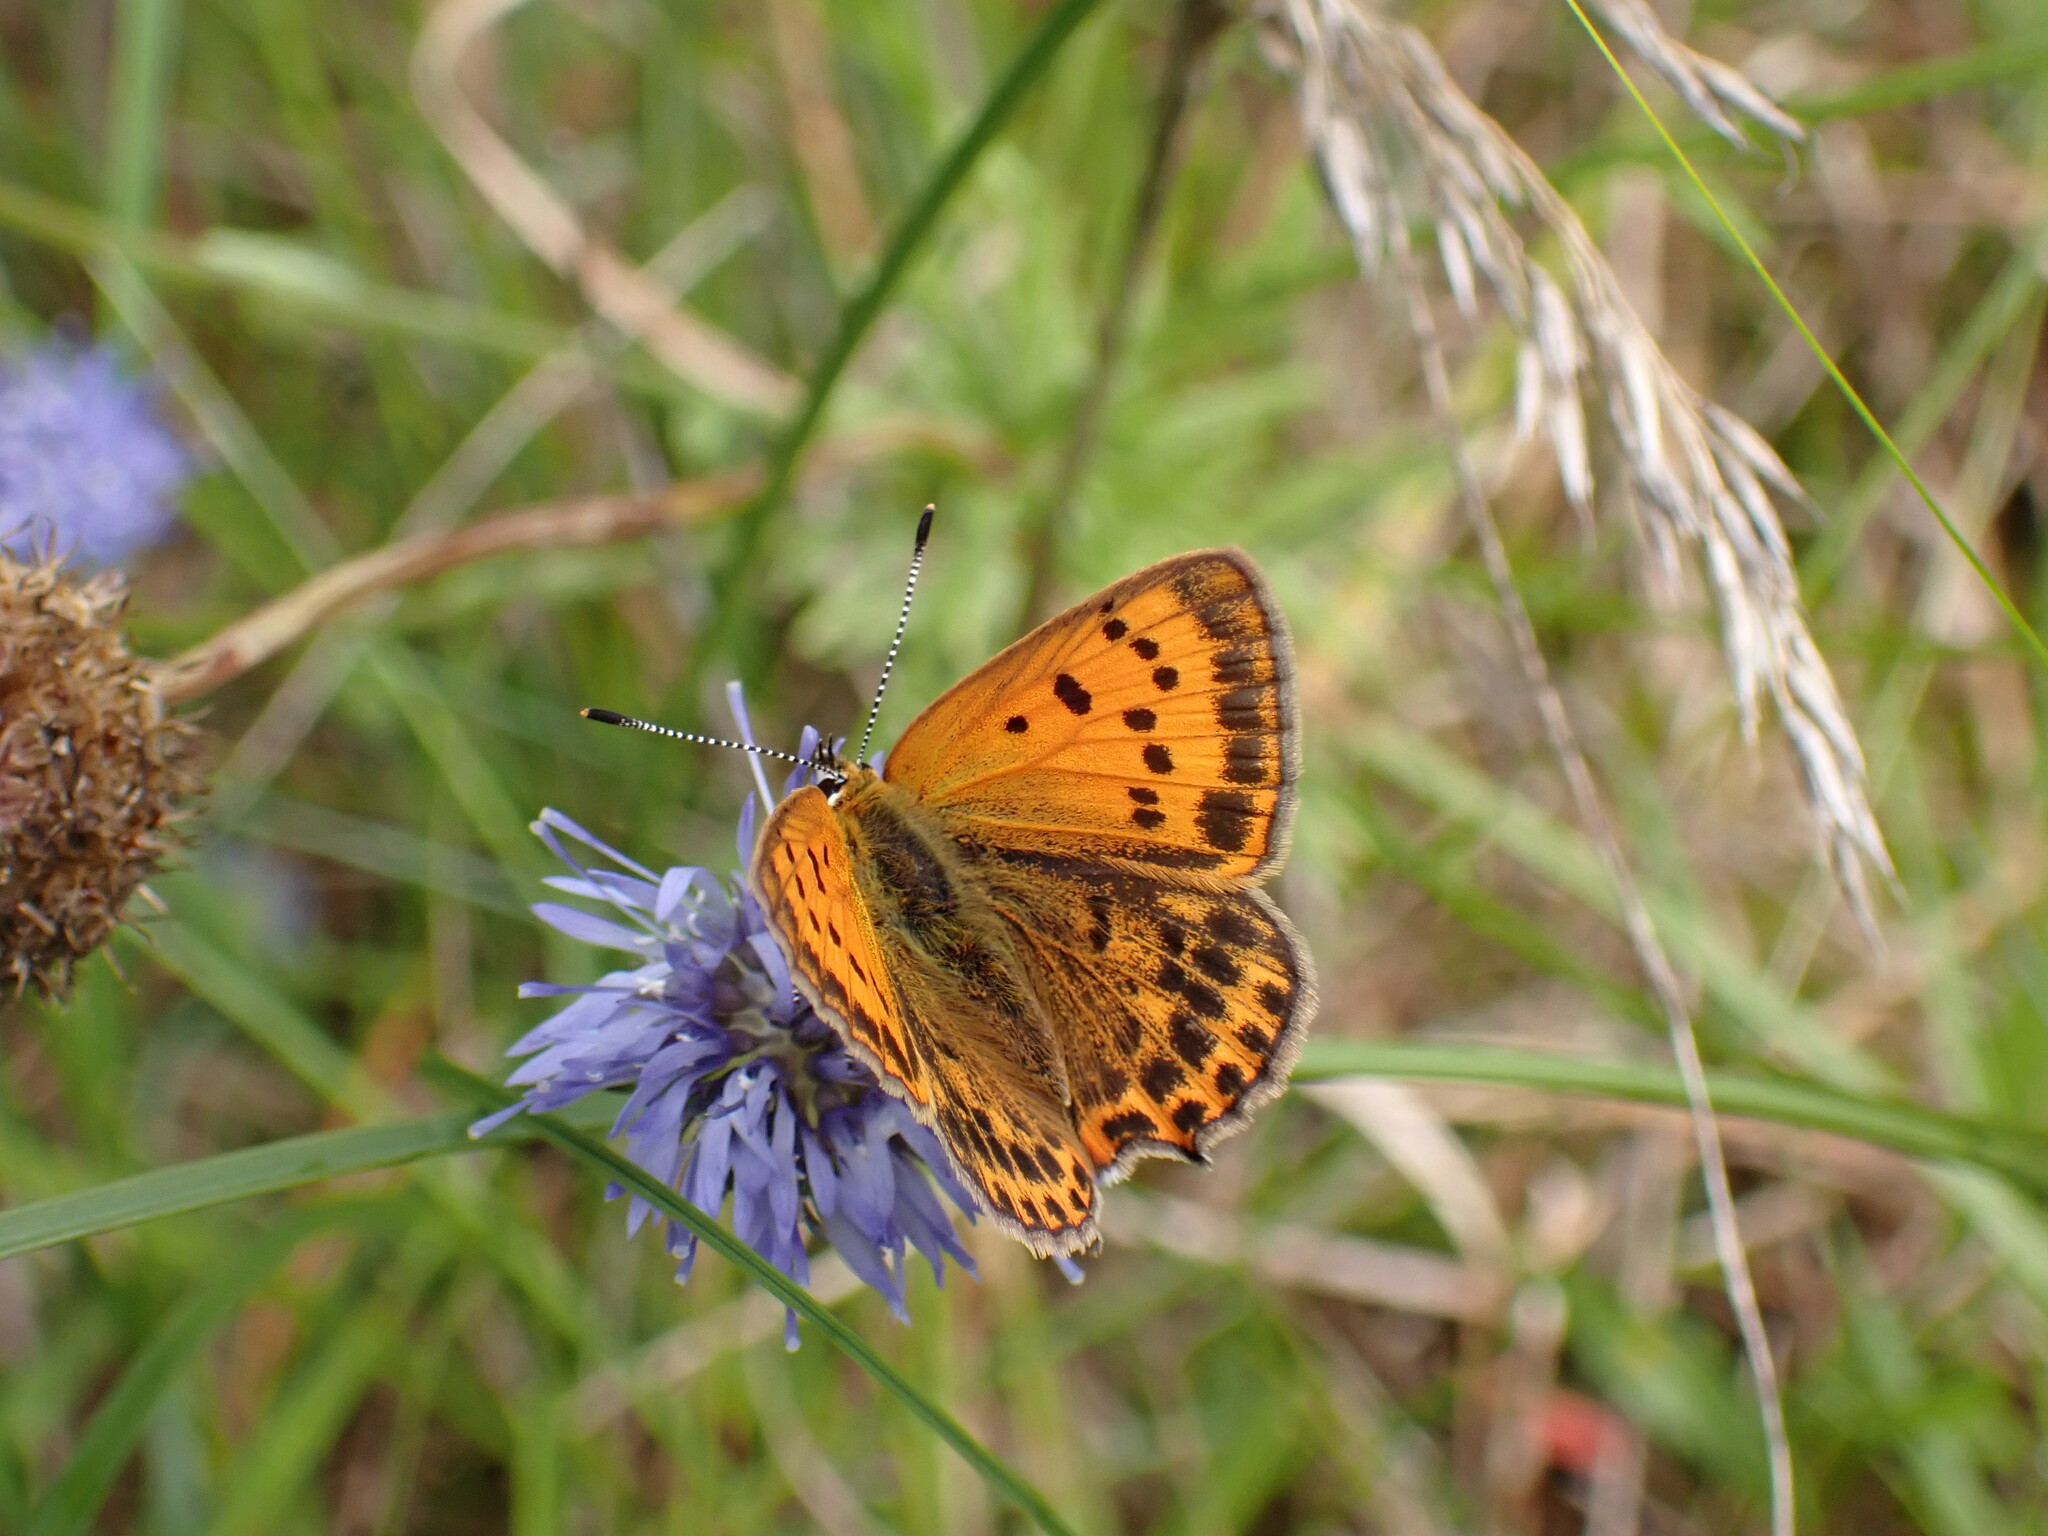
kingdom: Animalia
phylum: Arthropoda
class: Insecta
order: Lepidoptera
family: Lycaenidae
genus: Lycaena
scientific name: Lycaena virgaureae
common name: Scarce copper
